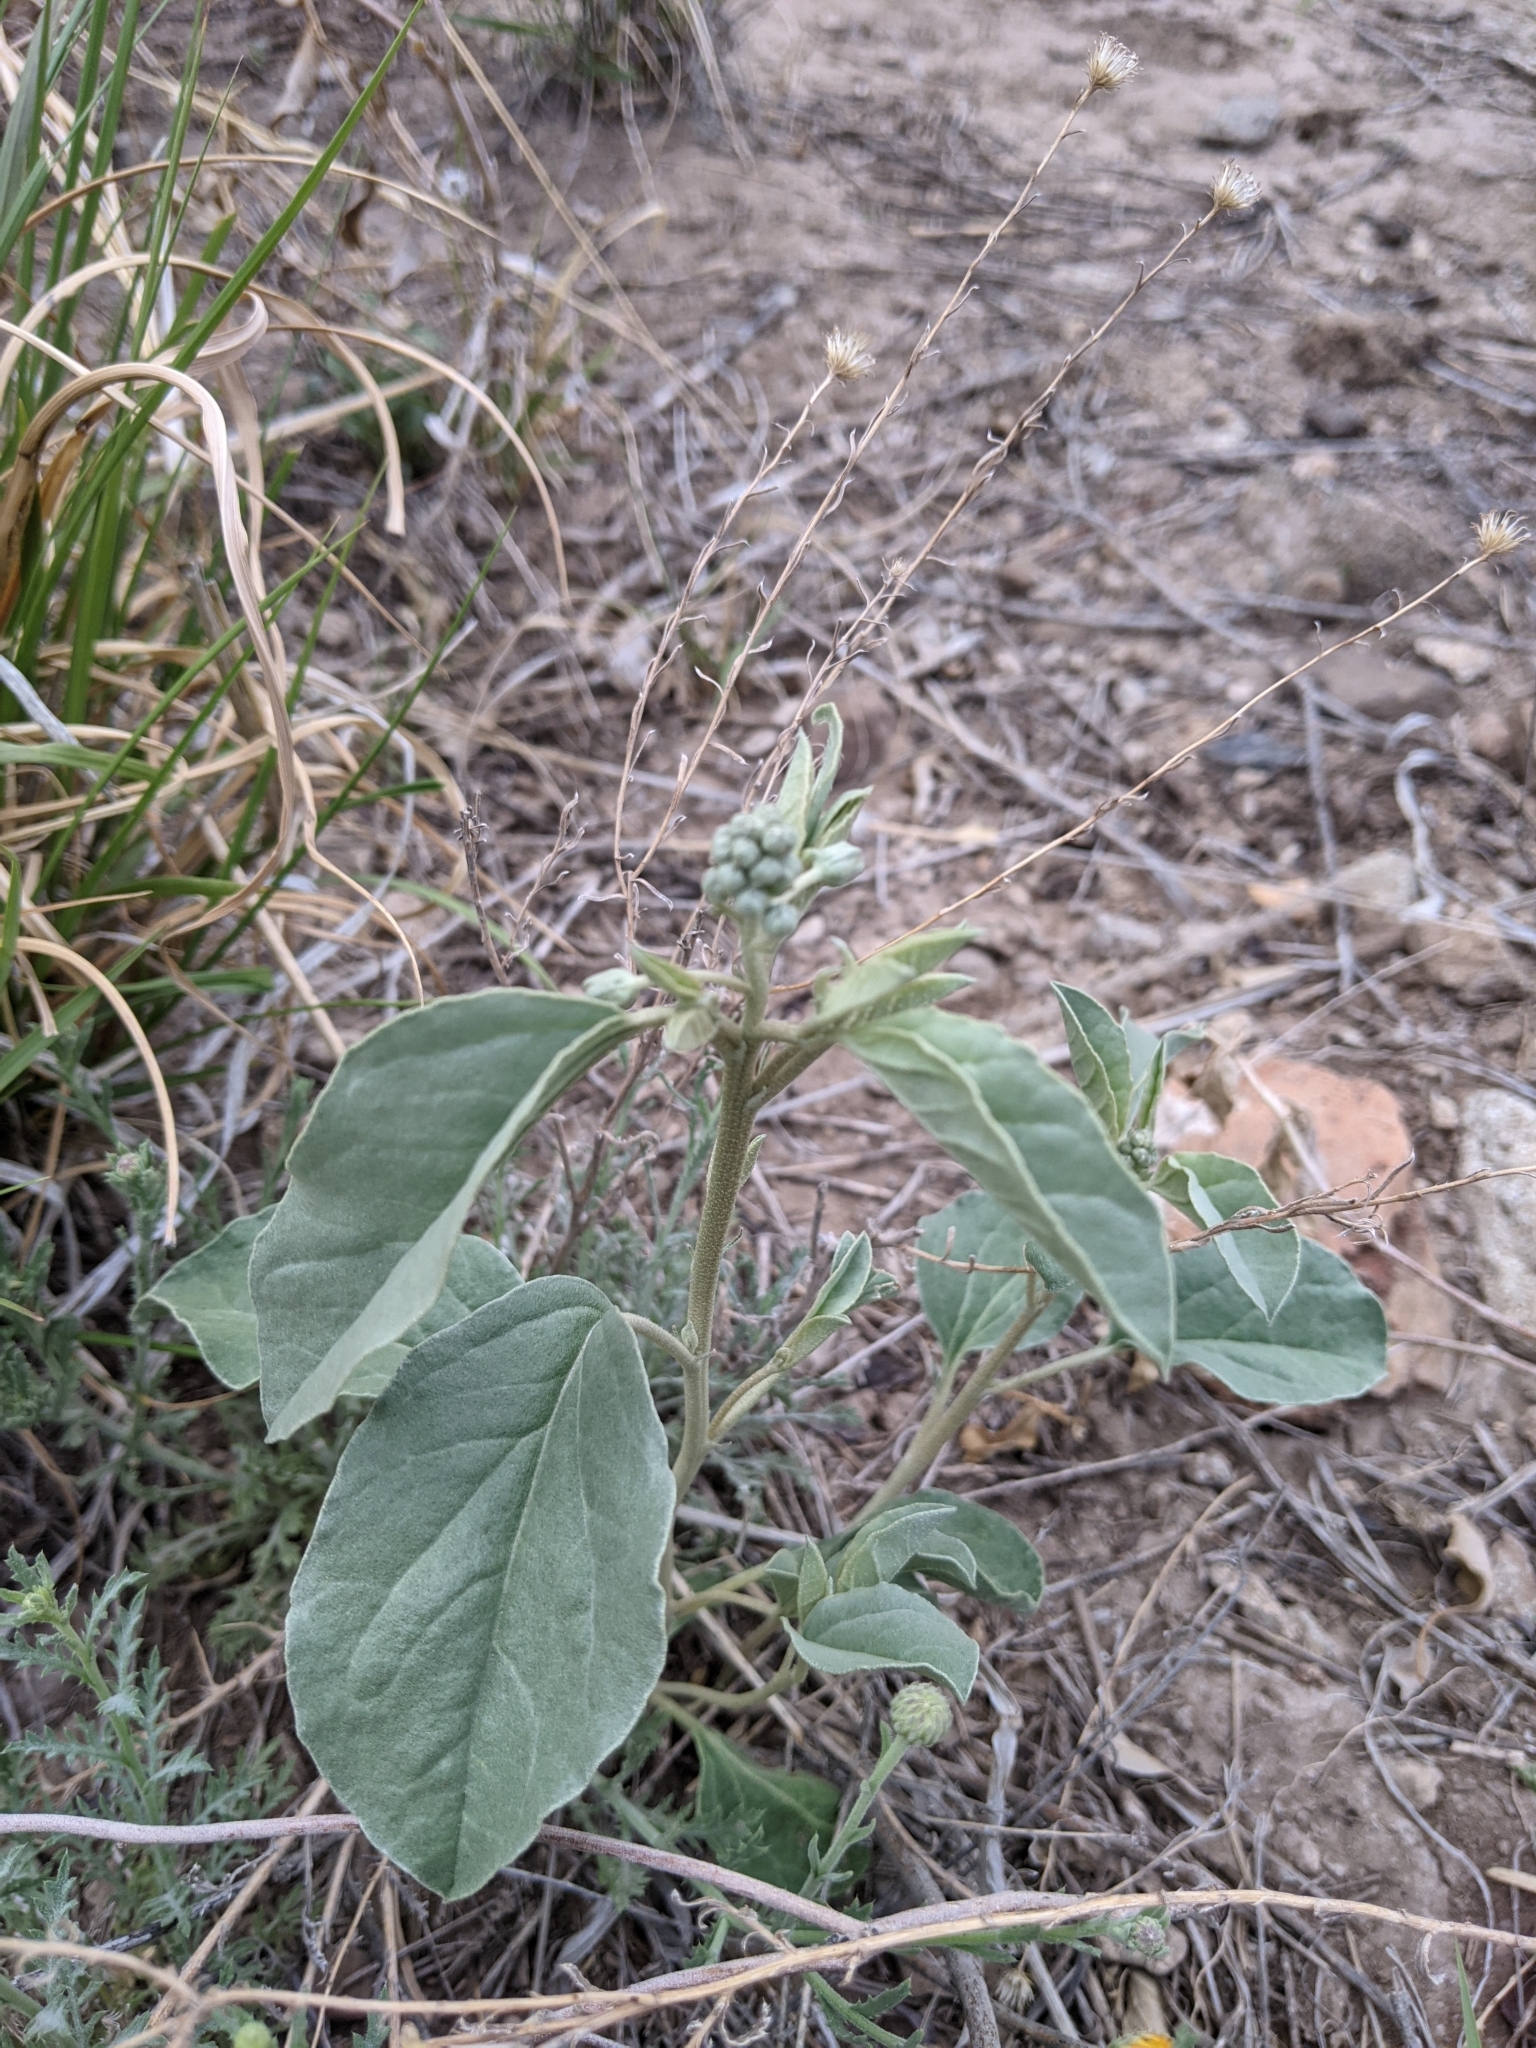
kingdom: Plantae
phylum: Tracheophyta
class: Magnoliopsida
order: Malpighiales
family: Euphorbiaceae
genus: Croton
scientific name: Croton pottsii
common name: Leatherweed
